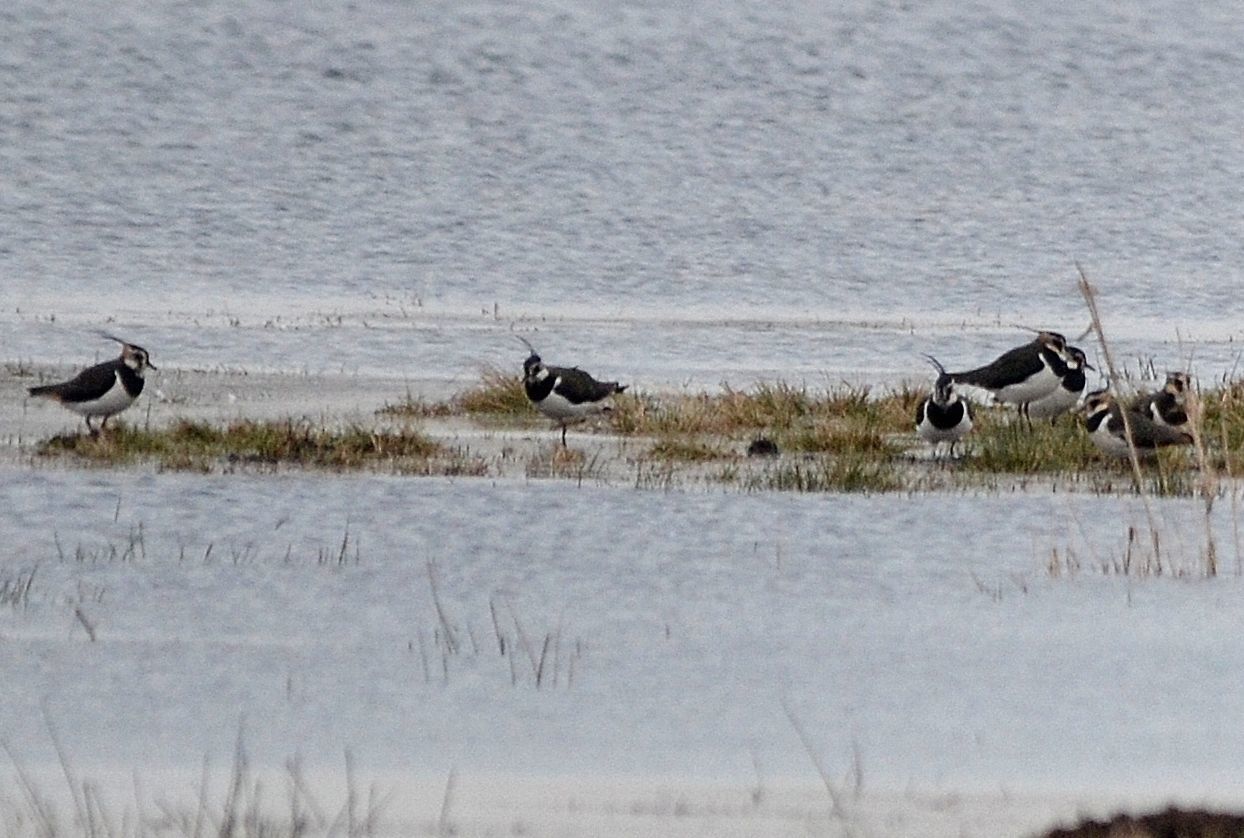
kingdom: Animalia
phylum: Chordata
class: Aves
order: Charadriiformes
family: Charadriidae
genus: Vanellus
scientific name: Vanellus vanellus
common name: Northern lapwing
